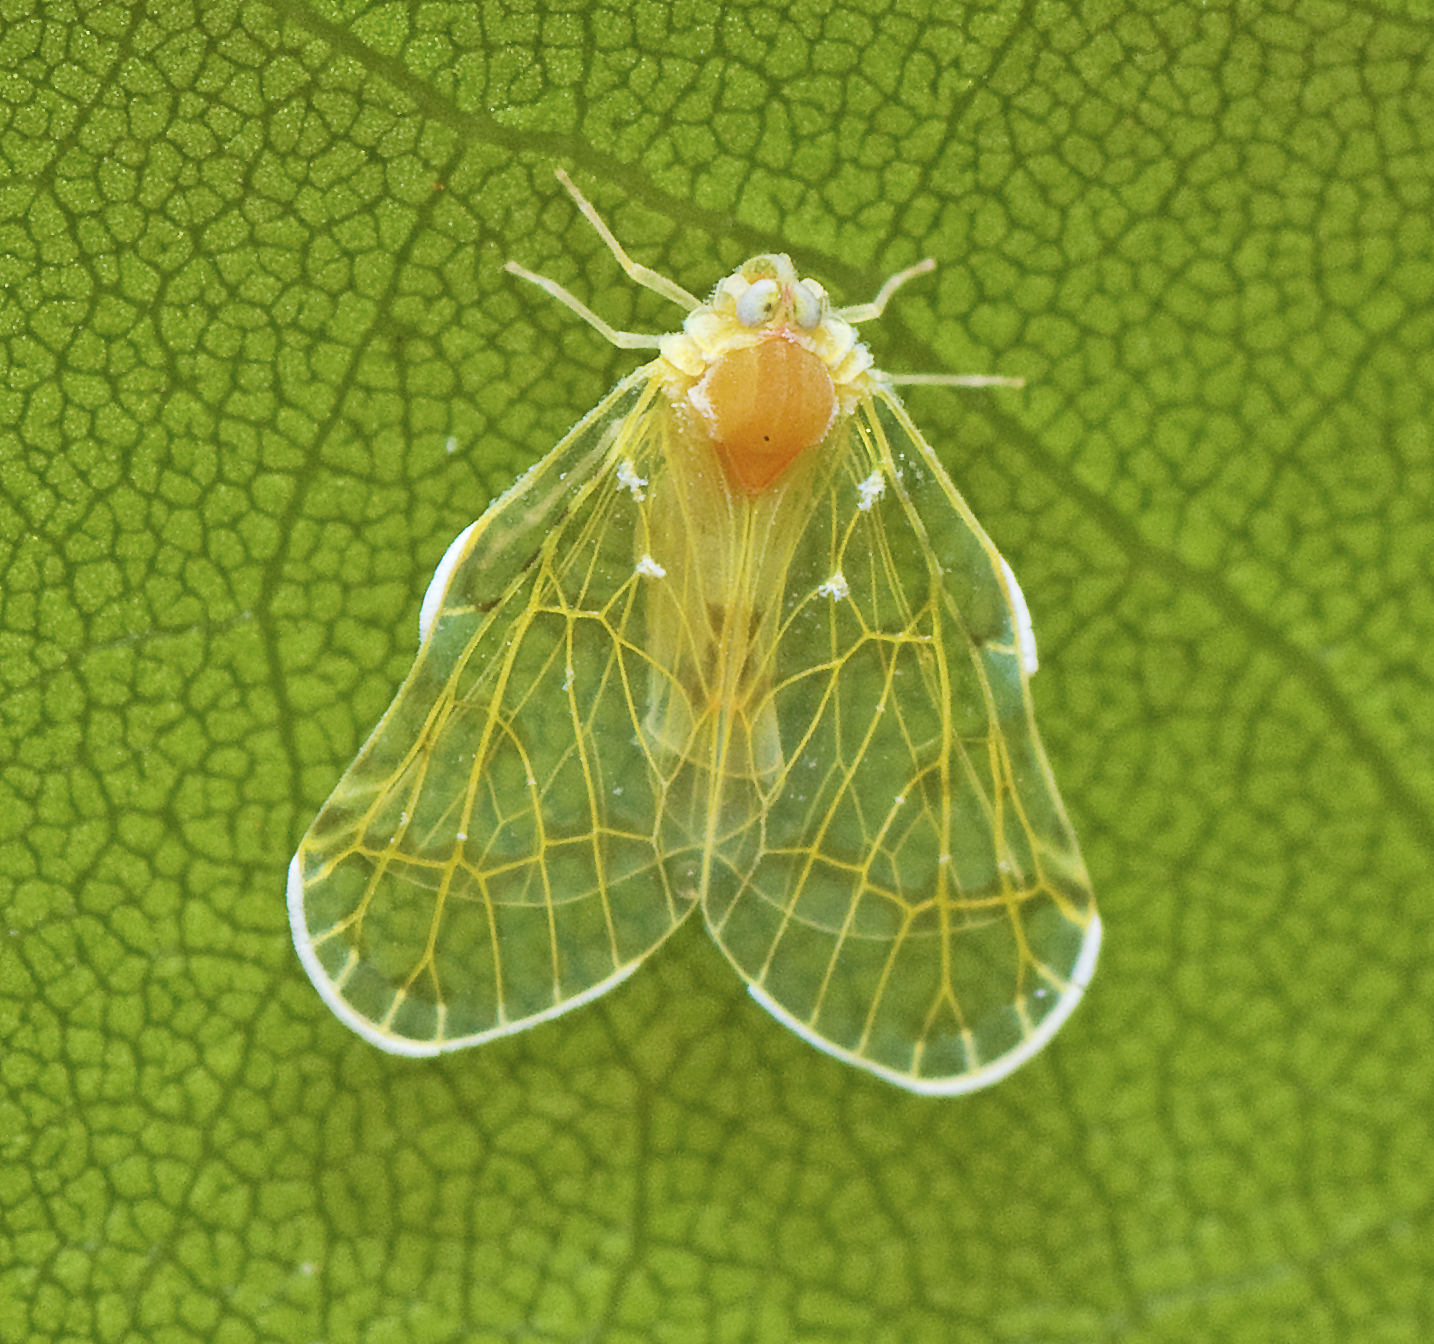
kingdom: Animalia
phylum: Arthropoda
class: Insecta
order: Hemiptera
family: Derbidae
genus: Saccharodite
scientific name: Saccharodite chrysonoe
